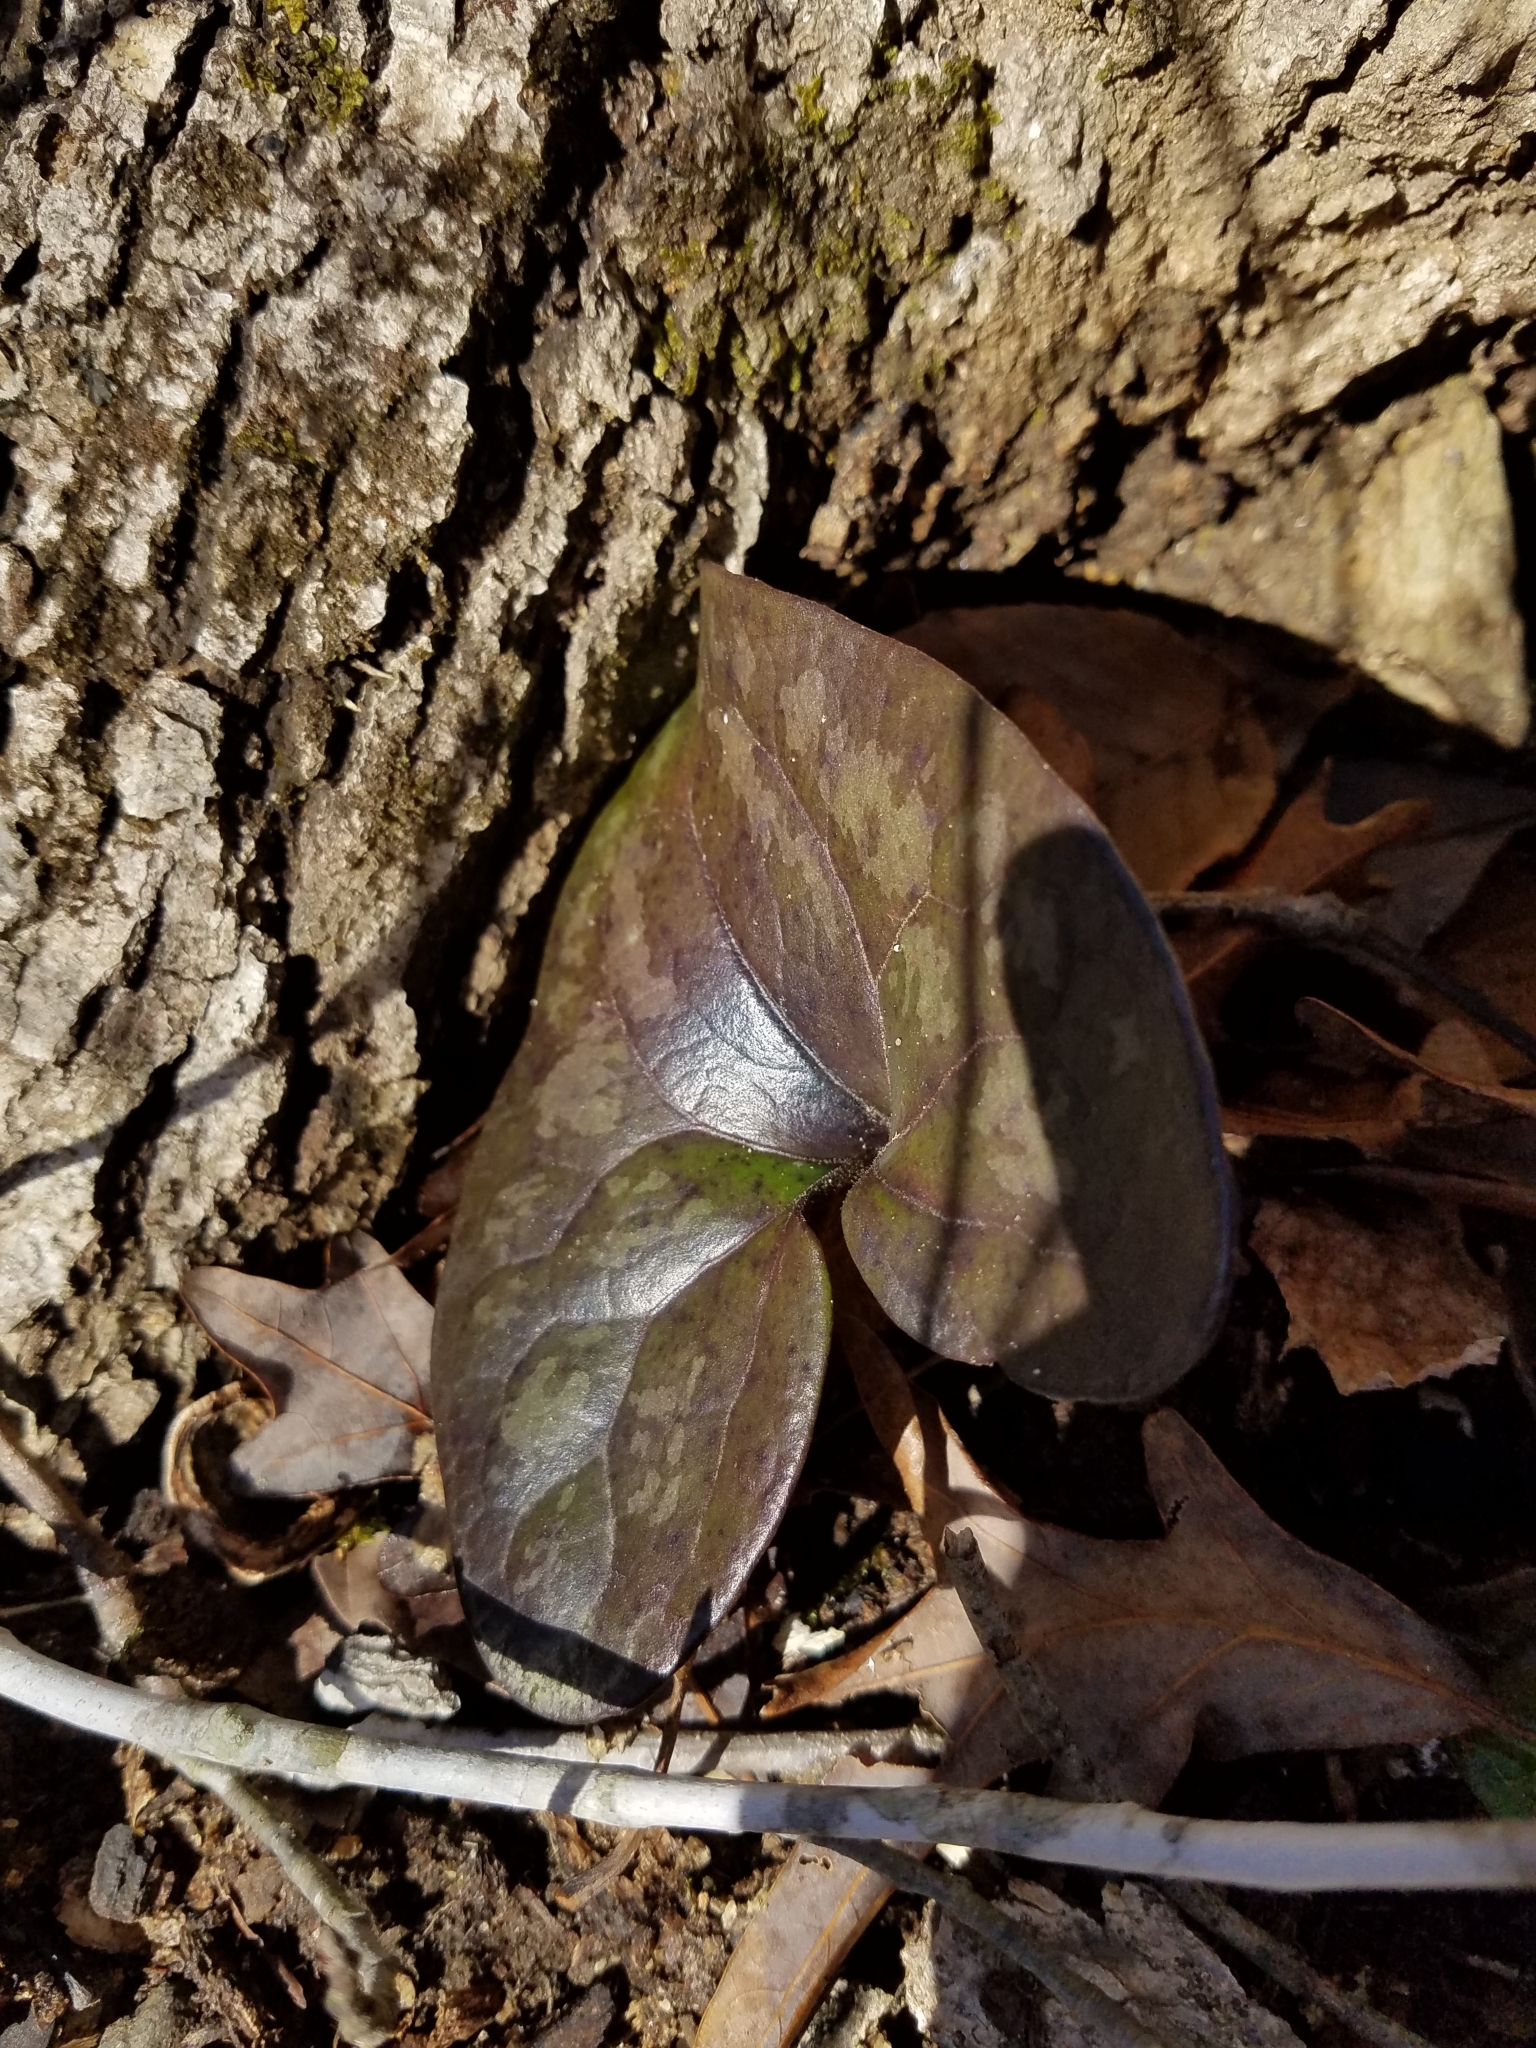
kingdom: Plantae
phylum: Tracheophyta
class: Magnoliopsida
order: Piperales
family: Aristolochiaceae
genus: Hexastylis
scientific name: Hexastylis arifolia
